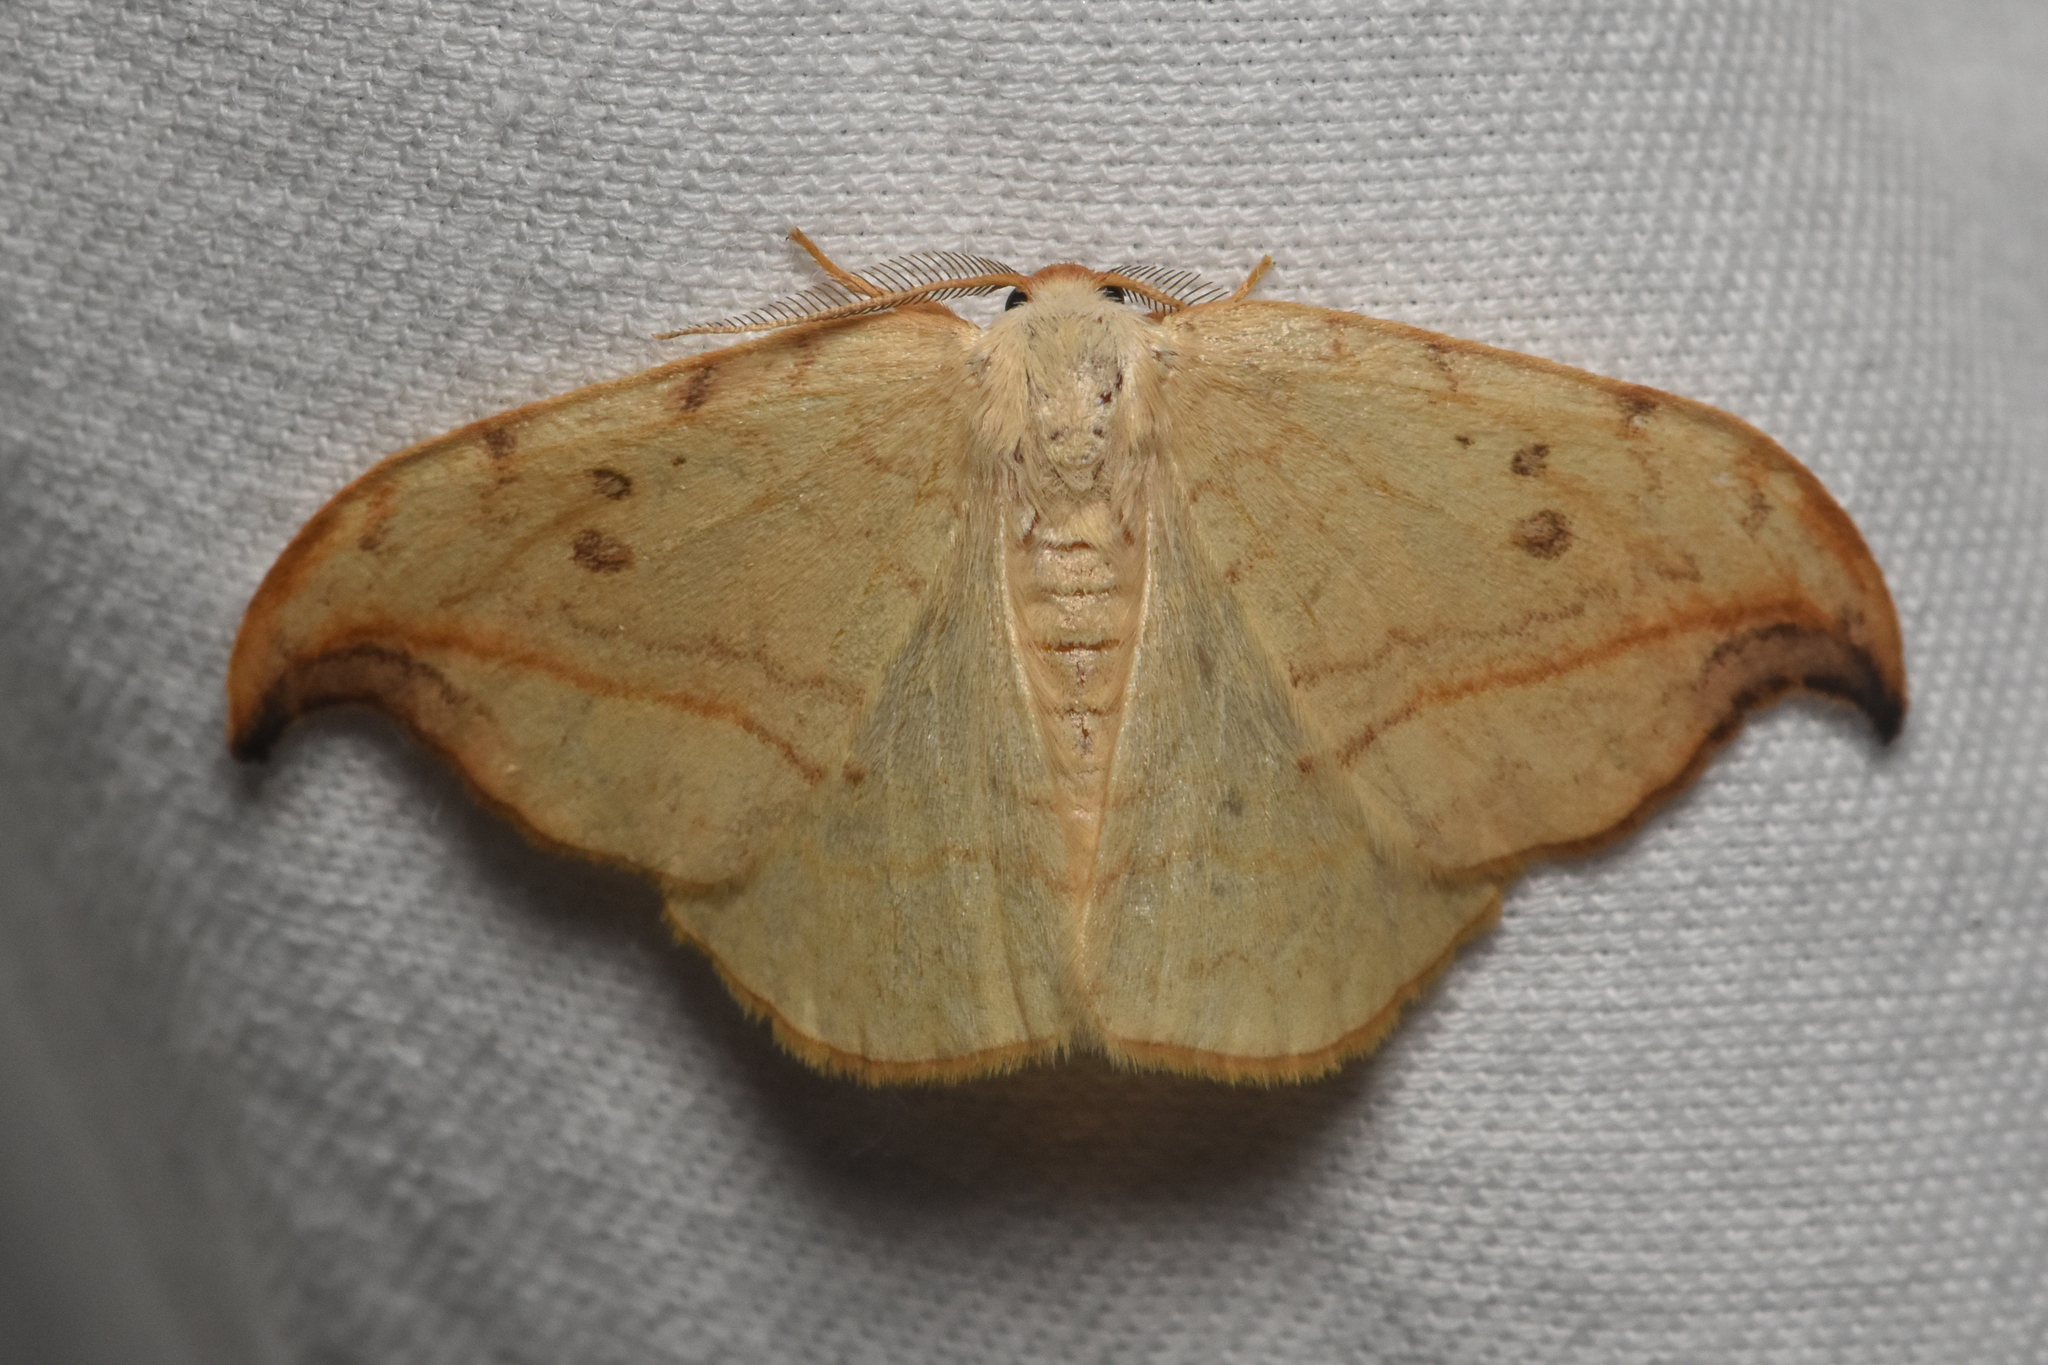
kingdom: Animalia
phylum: Arthropoda
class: Insecta
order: Lepidoptera
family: Drepanidae
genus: Drepana
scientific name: Drepana arcuata
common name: Arched hooktip moth
